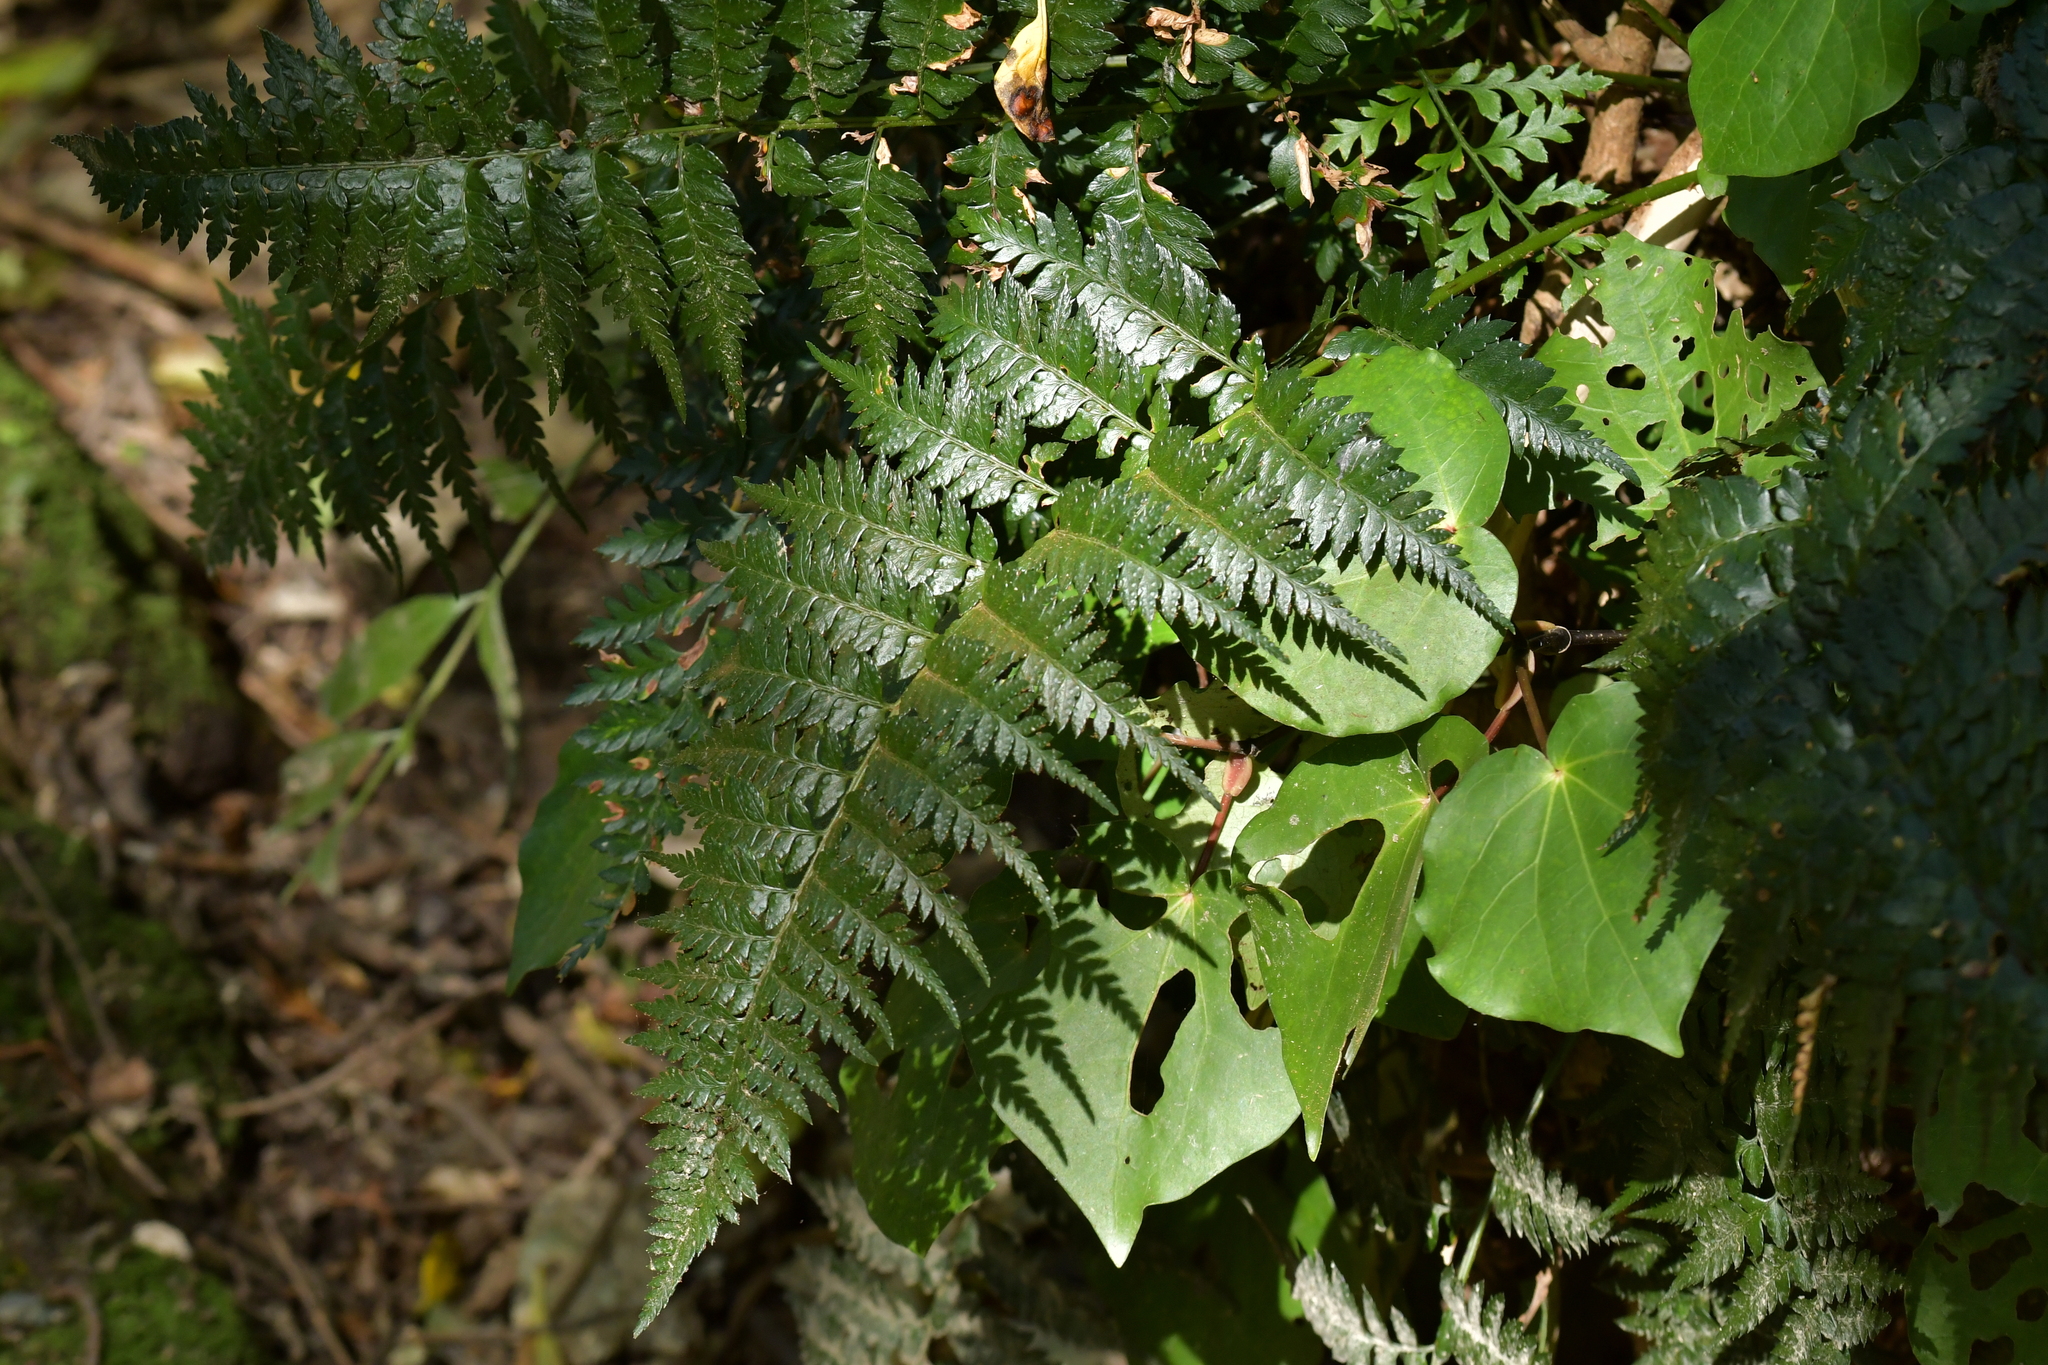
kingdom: Plantae
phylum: Tracheophyta
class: Polypodiopsida
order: Polypodiales
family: Dryopteridaceae
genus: Polystichum
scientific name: Polystichum oculatum
